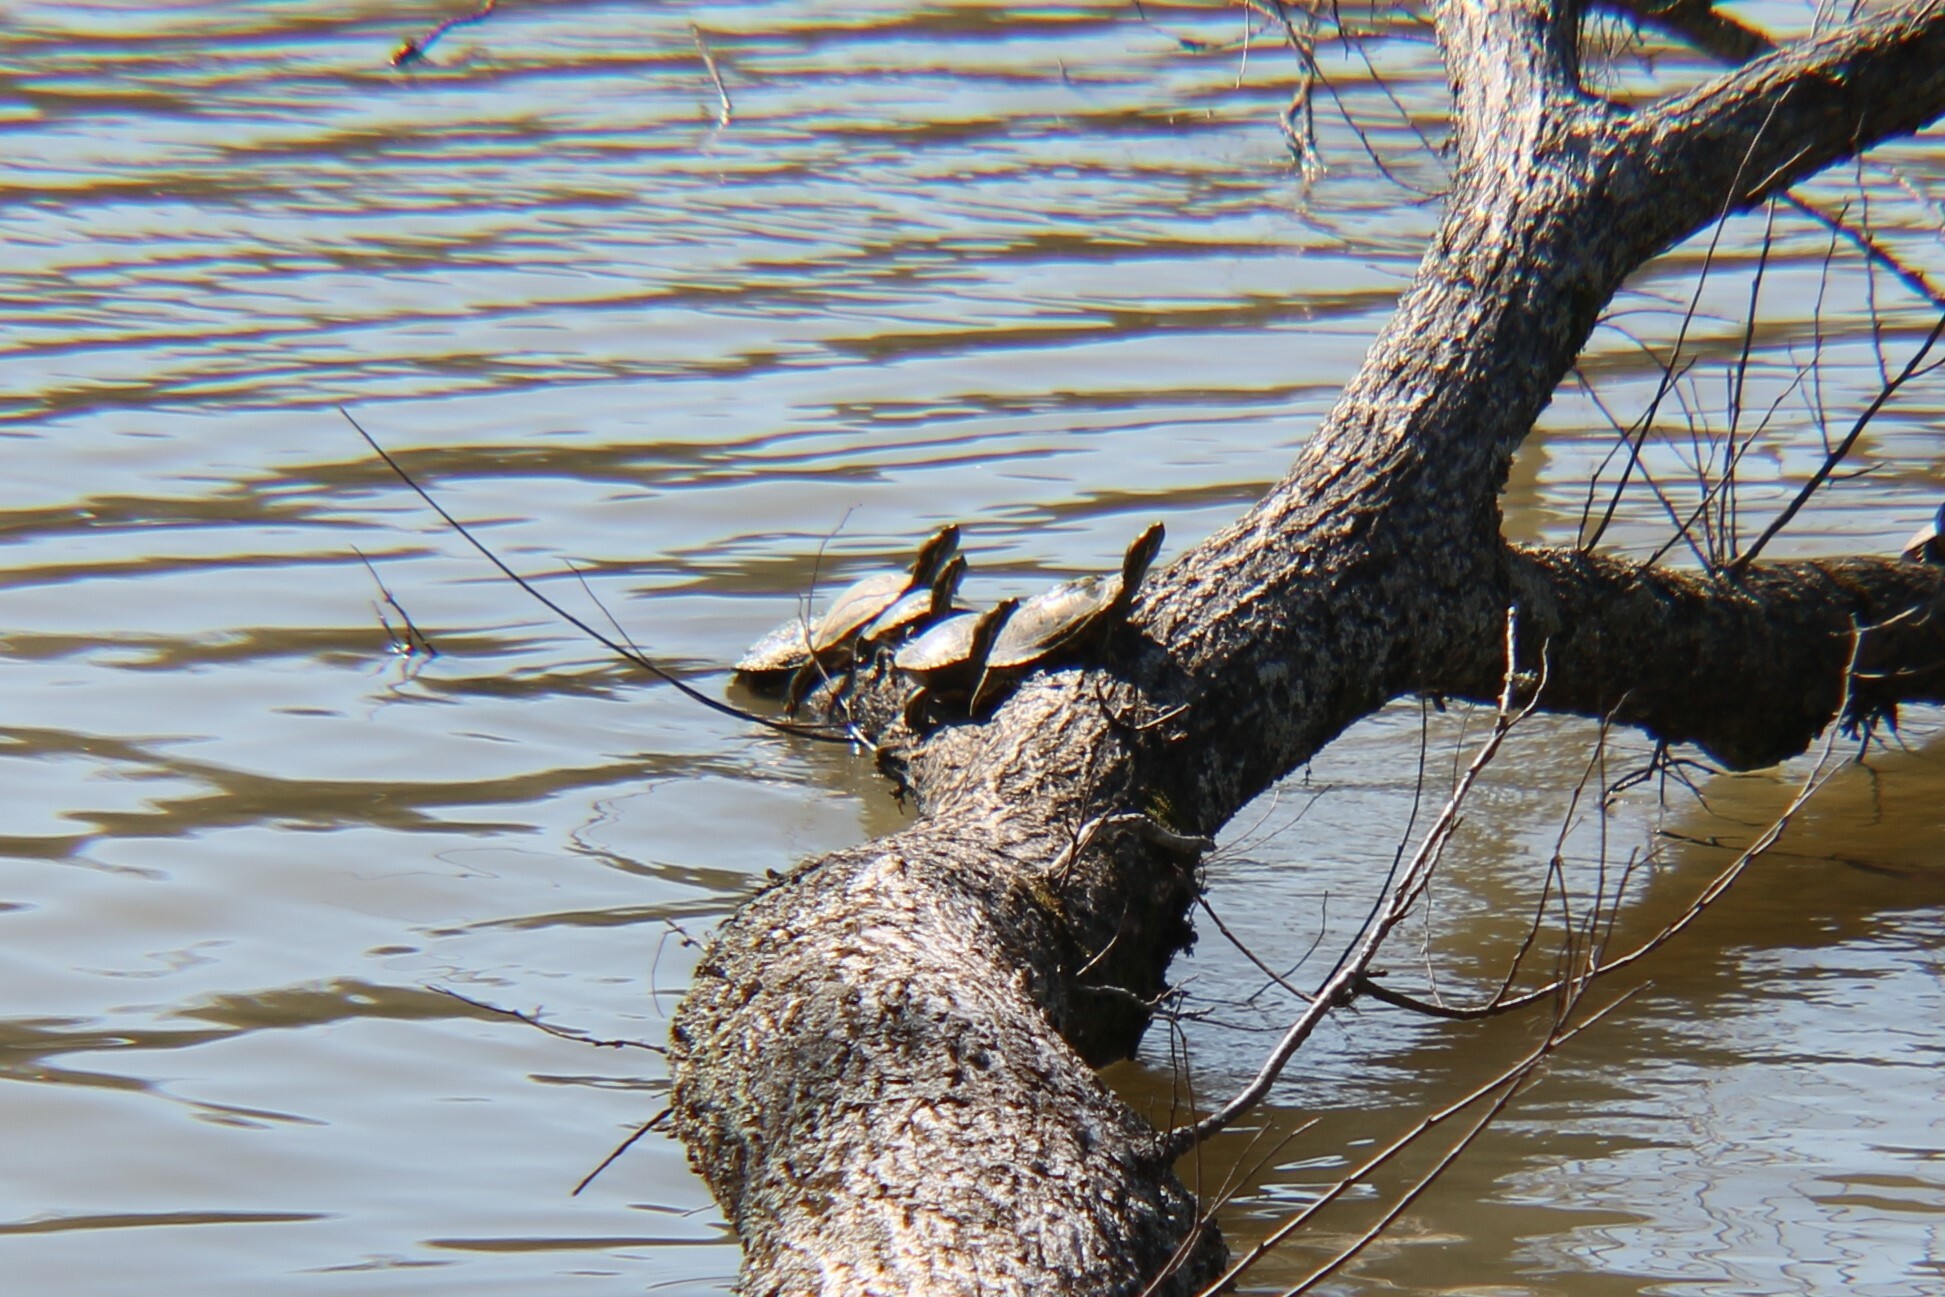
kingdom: Animalia
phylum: Chordata
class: Testudines
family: Emydidae
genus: Trachemys
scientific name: Trachemys scripta
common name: Slider
